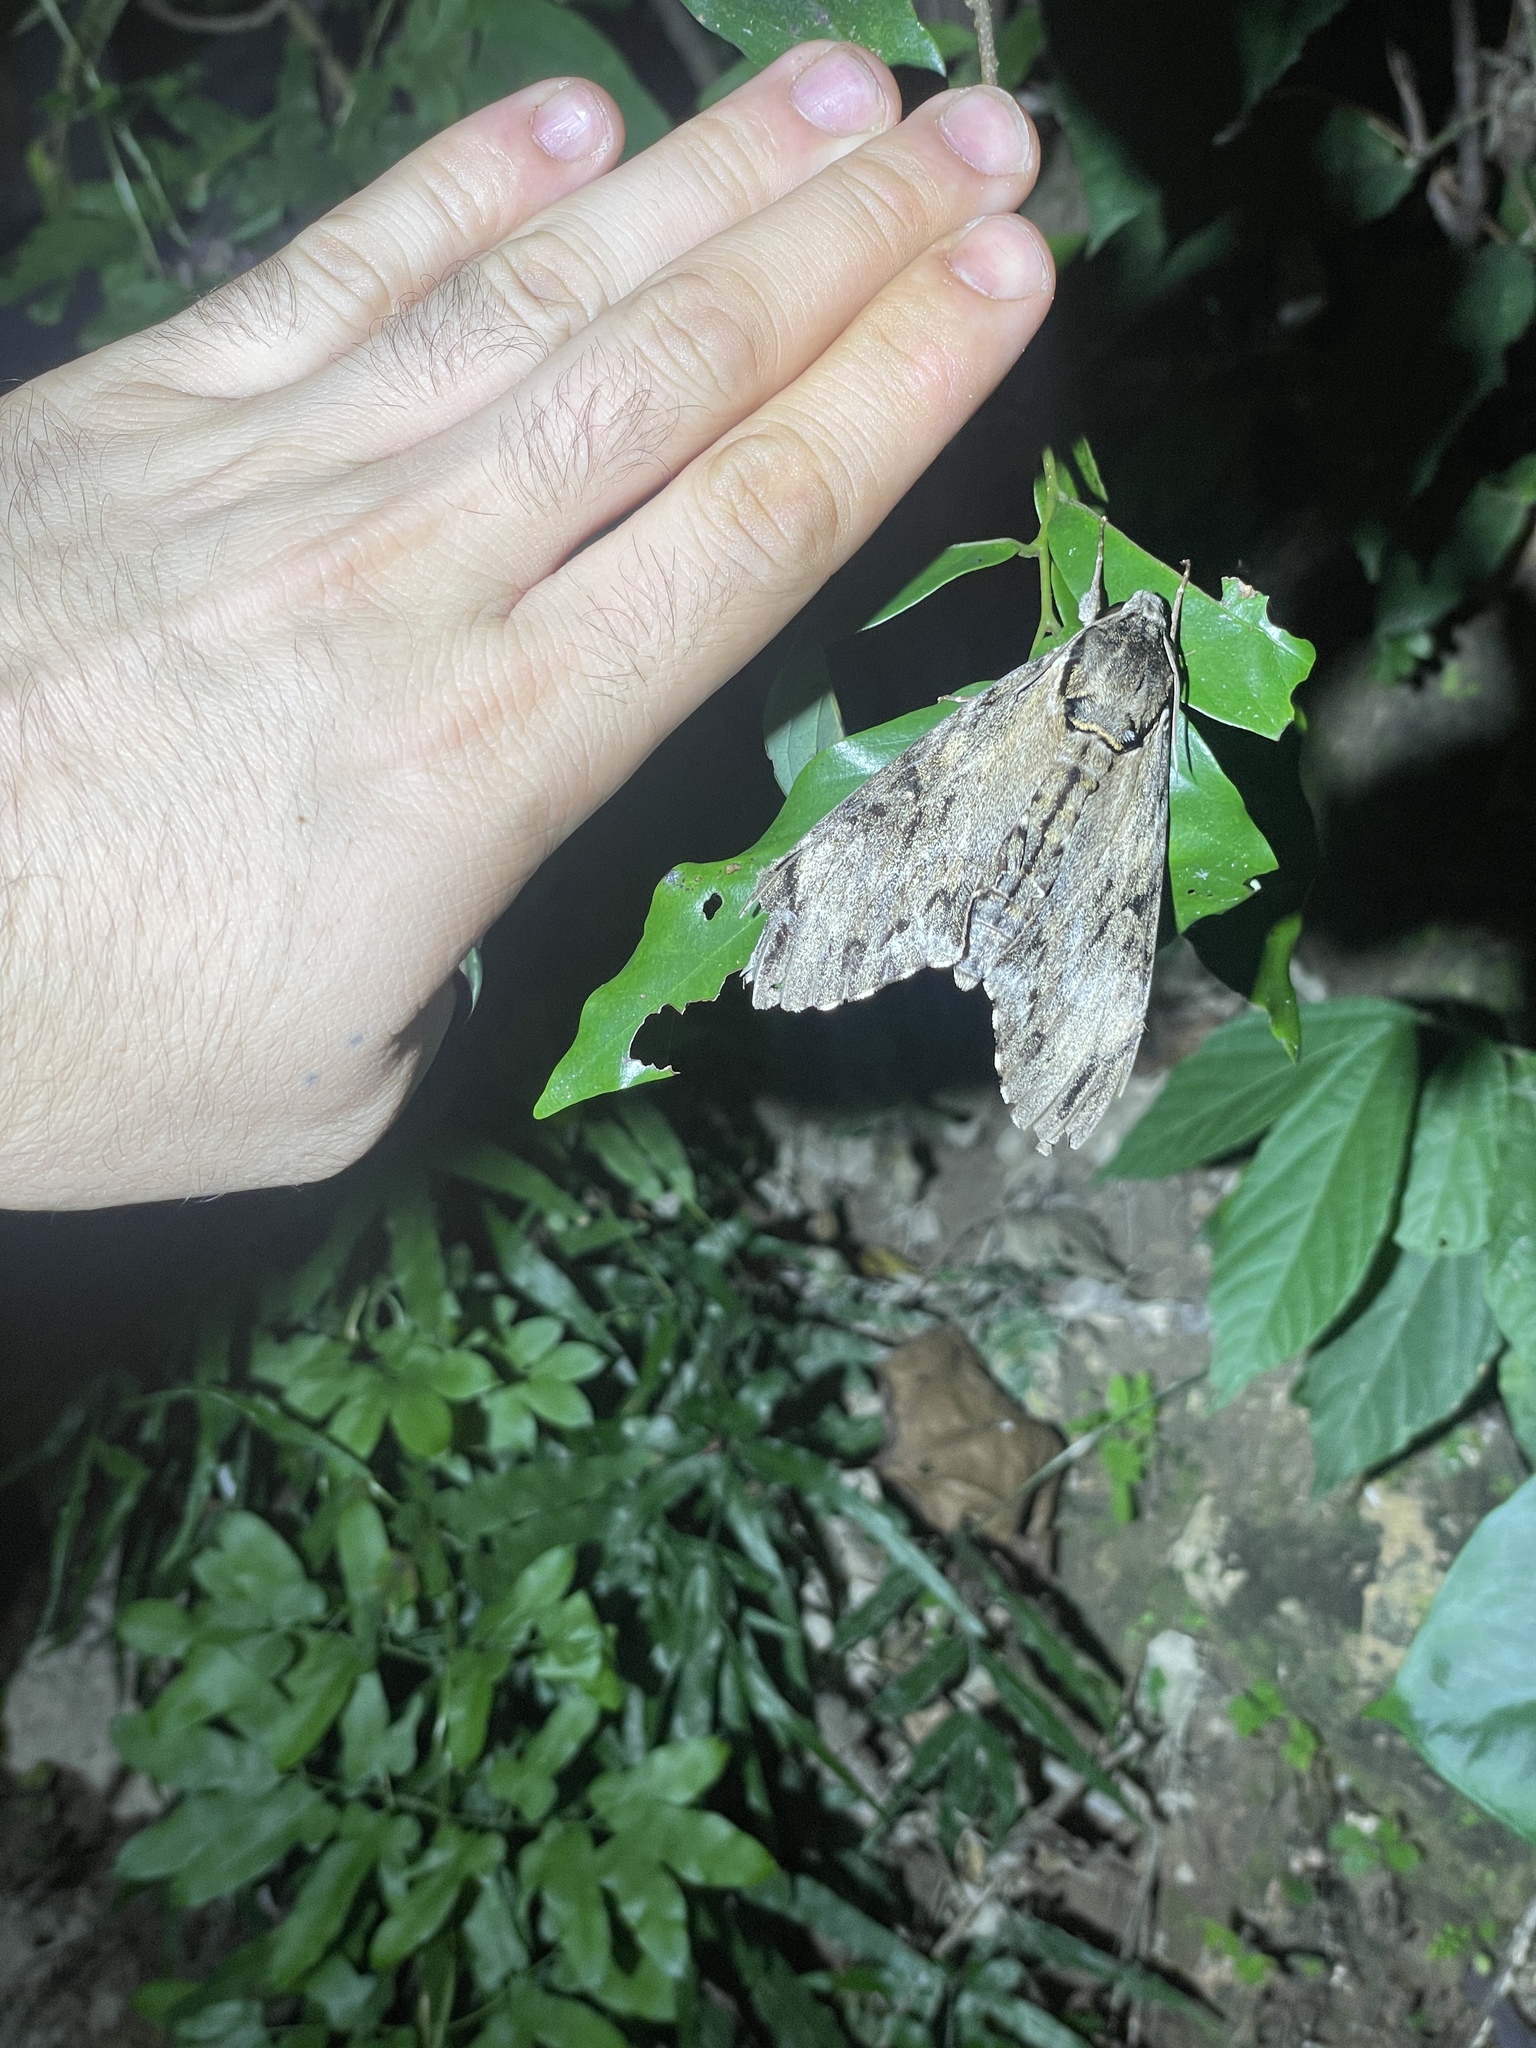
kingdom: Animalia
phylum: Arthropoda
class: Insecta
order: Lepidoptera
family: Sphingidae
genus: Psilogramma
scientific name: Psilogramma discistriga
